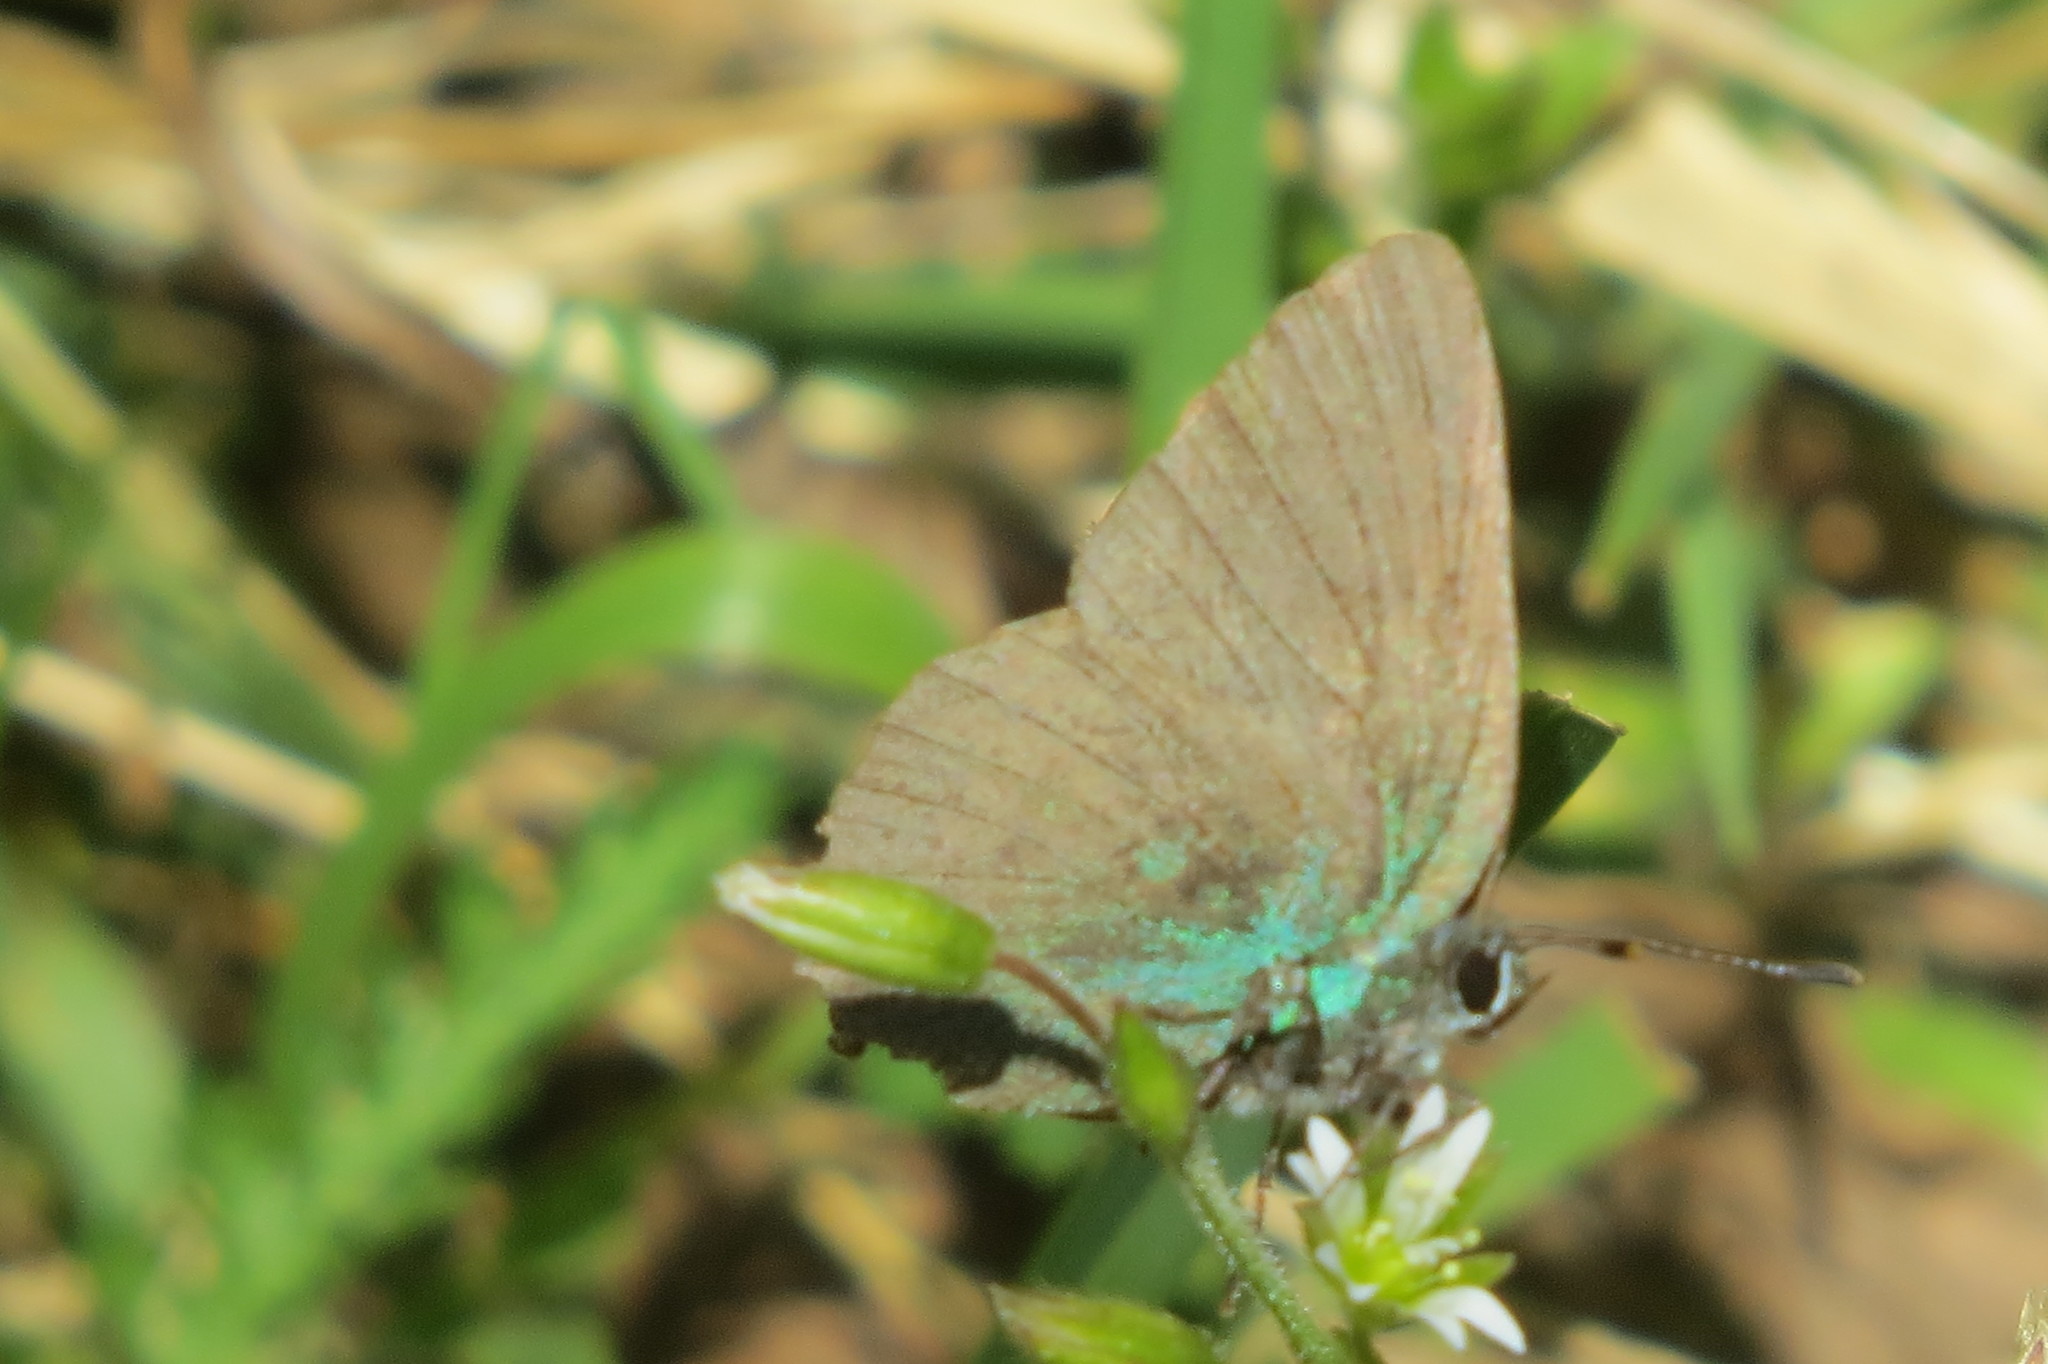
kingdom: Animalia
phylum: Arthropoda
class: Insecta
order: Lepidoptera
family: Lycaenidae
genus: Callophrys
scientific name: Callophrys rubi
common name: Green hairstreak
